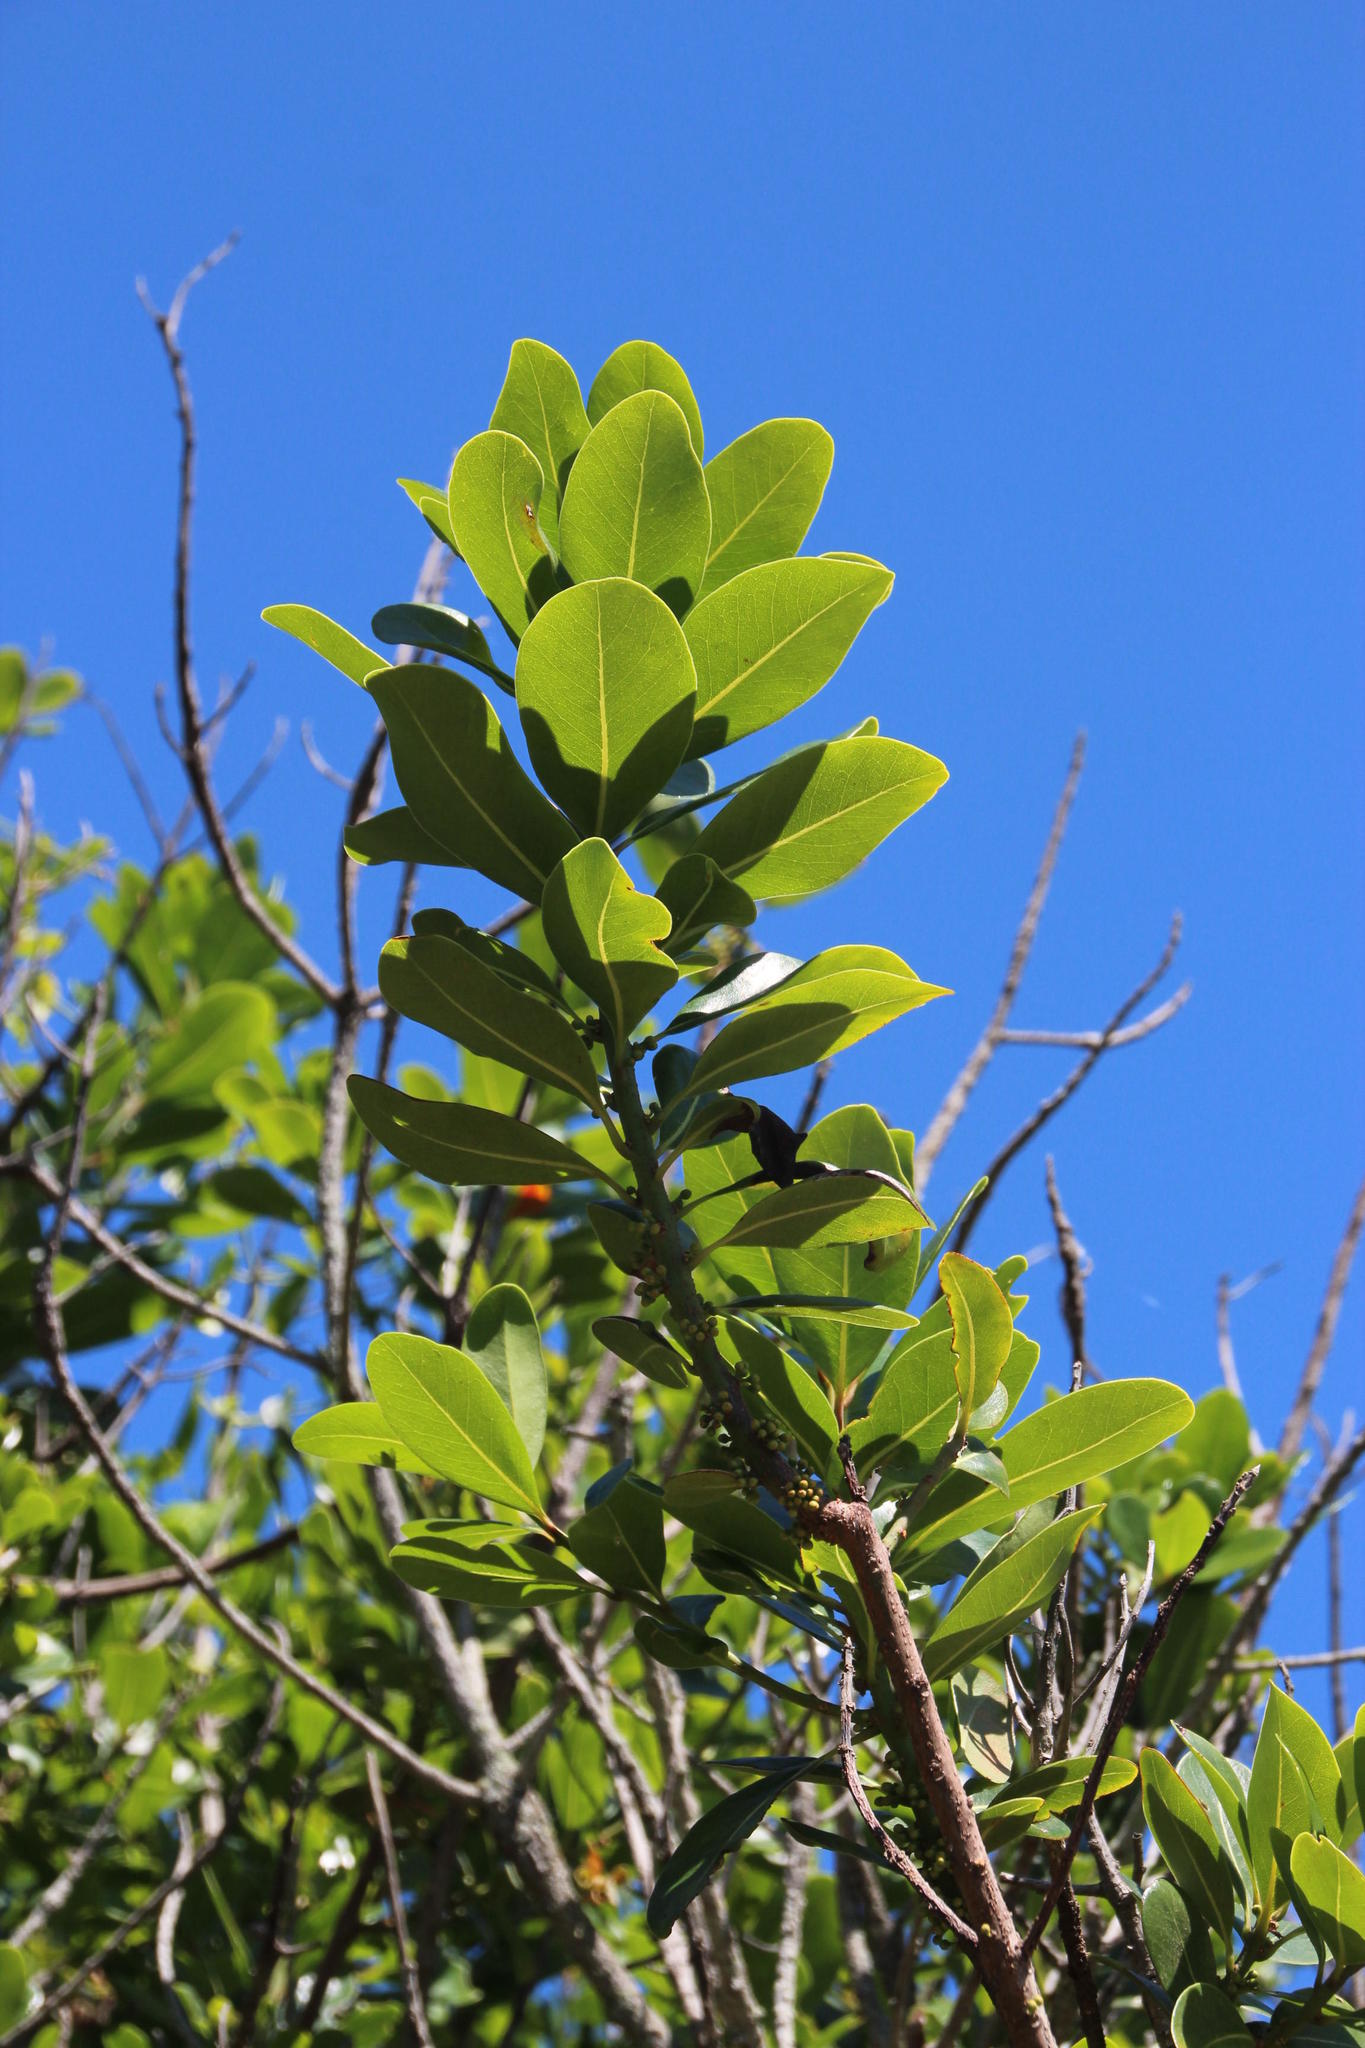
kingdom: Plantae
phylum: Tracheophyta
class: Magnoliopsida
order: Ericales
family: Sapotaceae
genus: Sideroxylon
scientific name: Sideroxylon inerme
